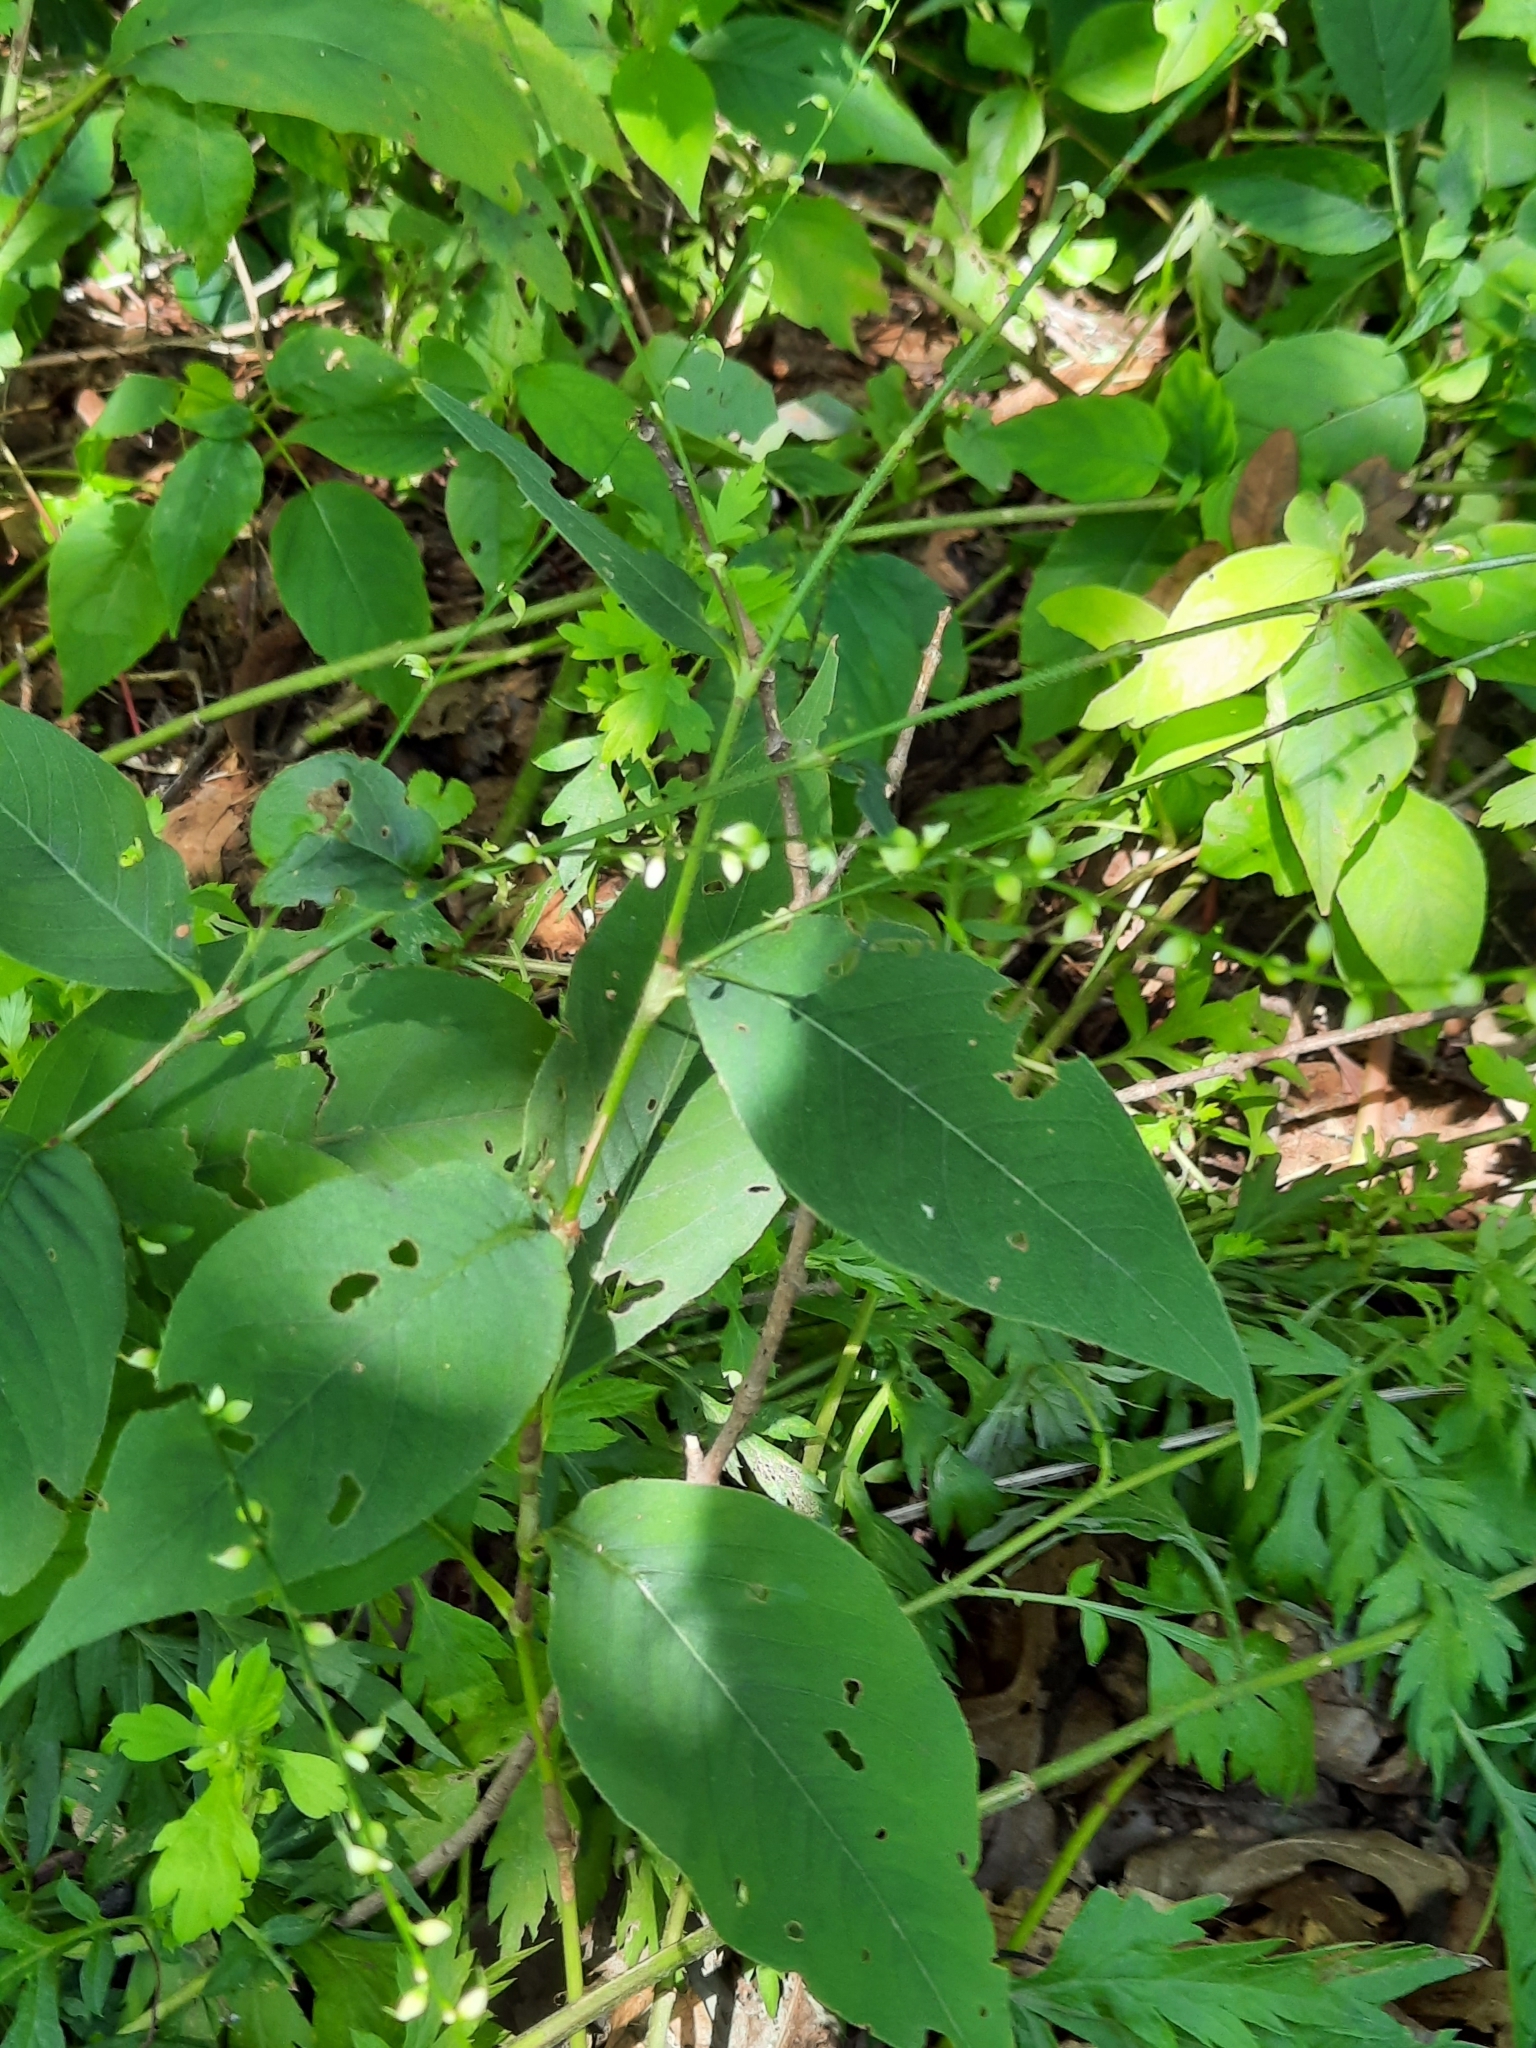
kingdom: Plantae
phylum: Tracheophyta
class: Magnoliopsida
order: Caryophyllales
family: Polygonaceae
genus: Persicaria
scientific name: Persicaria virginiana
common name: Jumpseed
